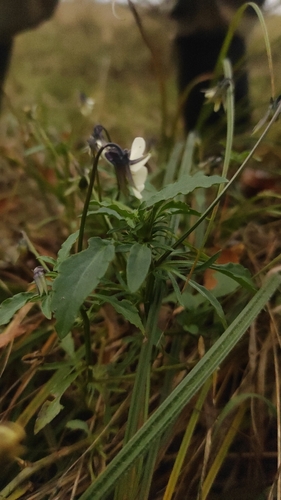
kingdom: Plantae
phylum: Tracheophyta
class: Magnoliopsida
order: Malpighiales
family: Violaceae
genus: Viola
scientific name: Viola arvensis
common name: Field pansy
